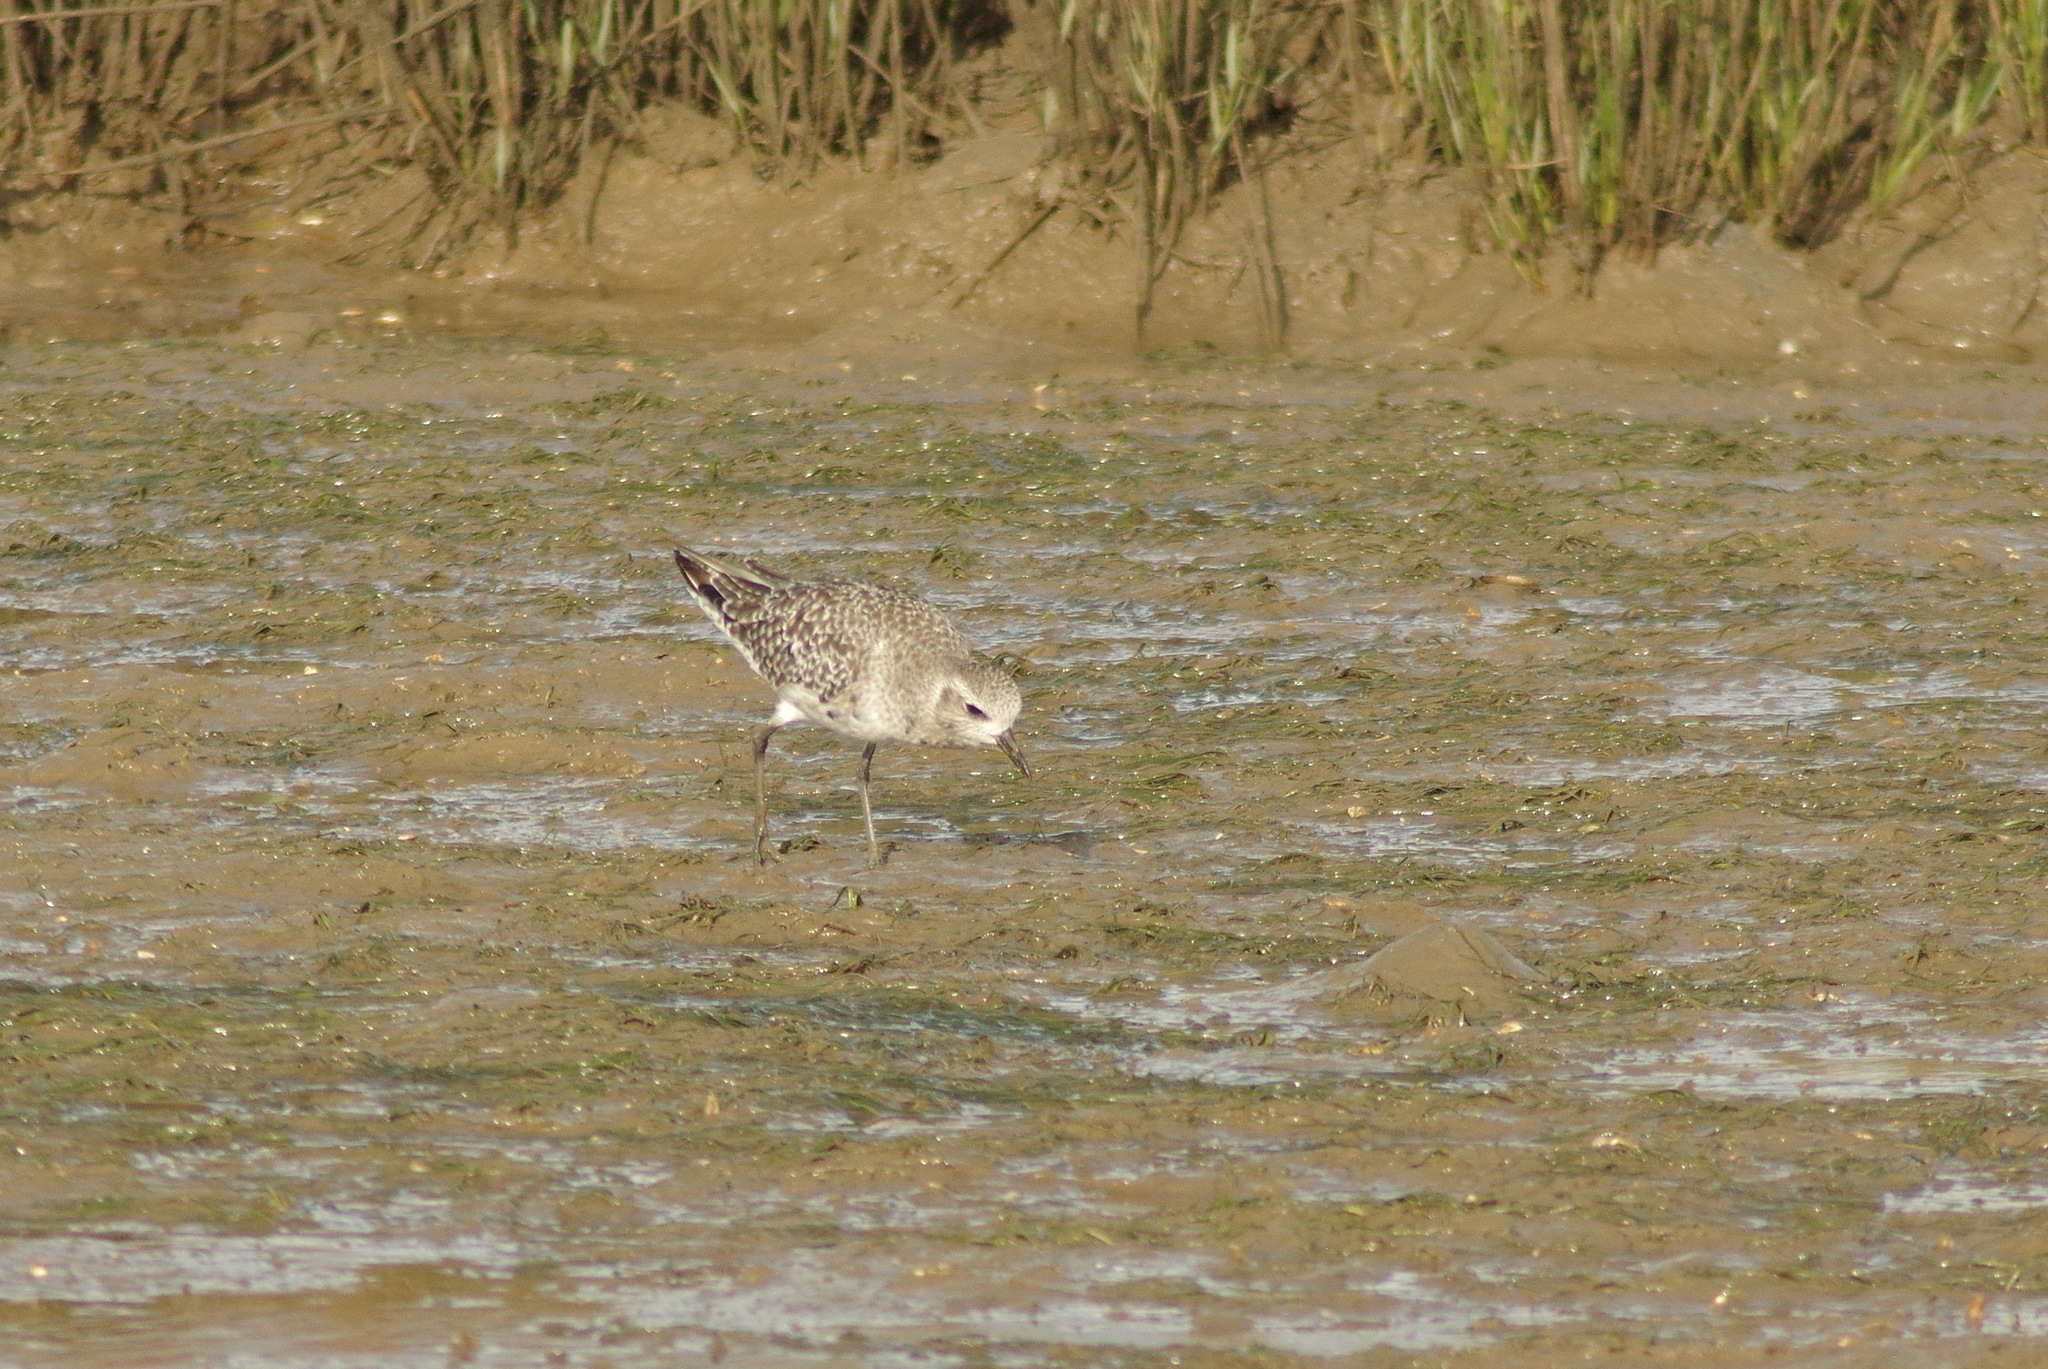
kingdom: Animalia
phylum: Chordata
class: Aves
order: Charadriiformes
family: Charadriidae
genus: Pluvialis
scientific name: Pluvialis squatarola
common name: Grey plover
